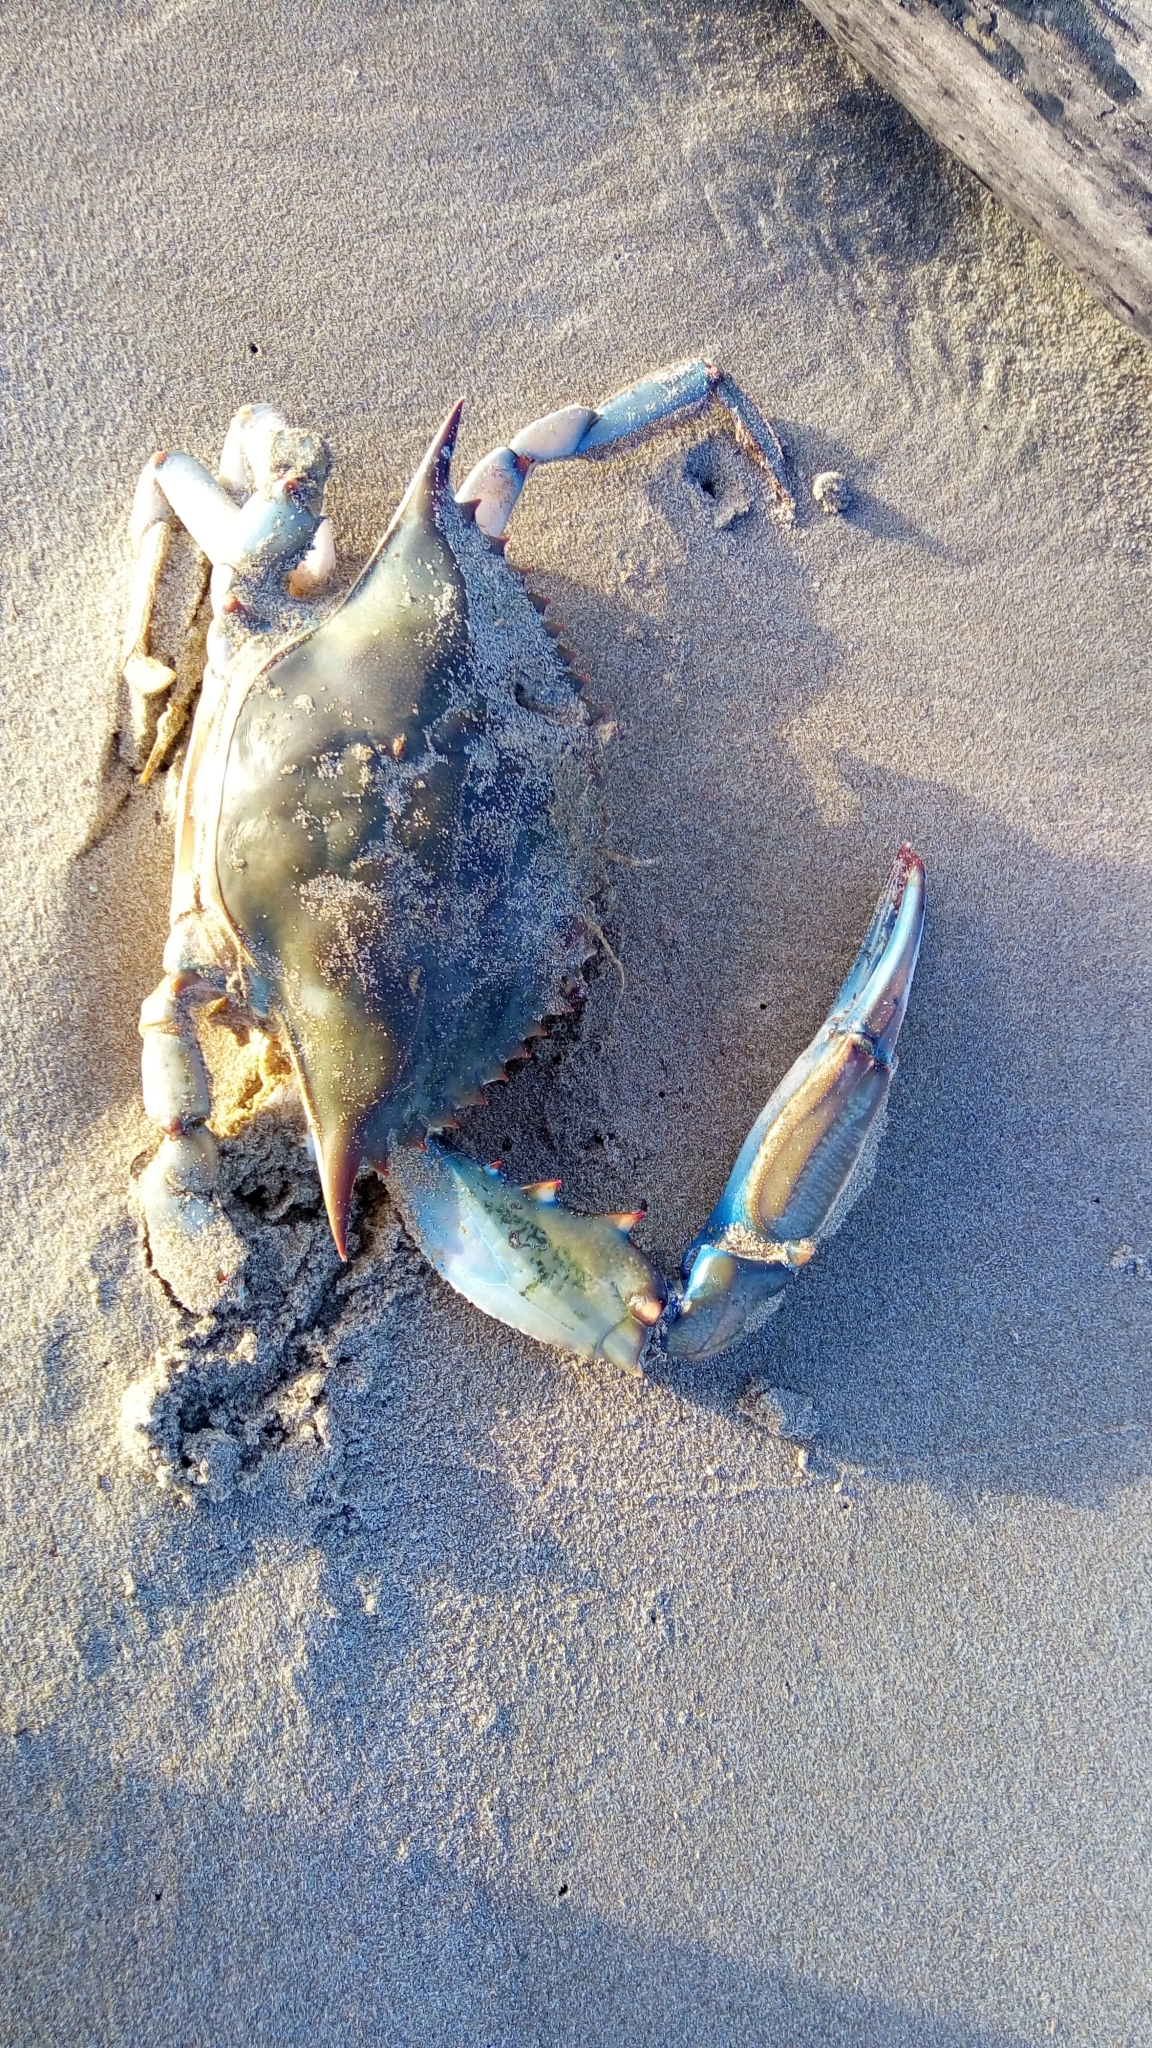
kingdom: Animalia
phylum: Arthropoda
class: Malacostraca
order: Decapoda
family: Portunidae
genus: Callinectes
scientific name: Callinectes sapidus
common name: Blue crab
